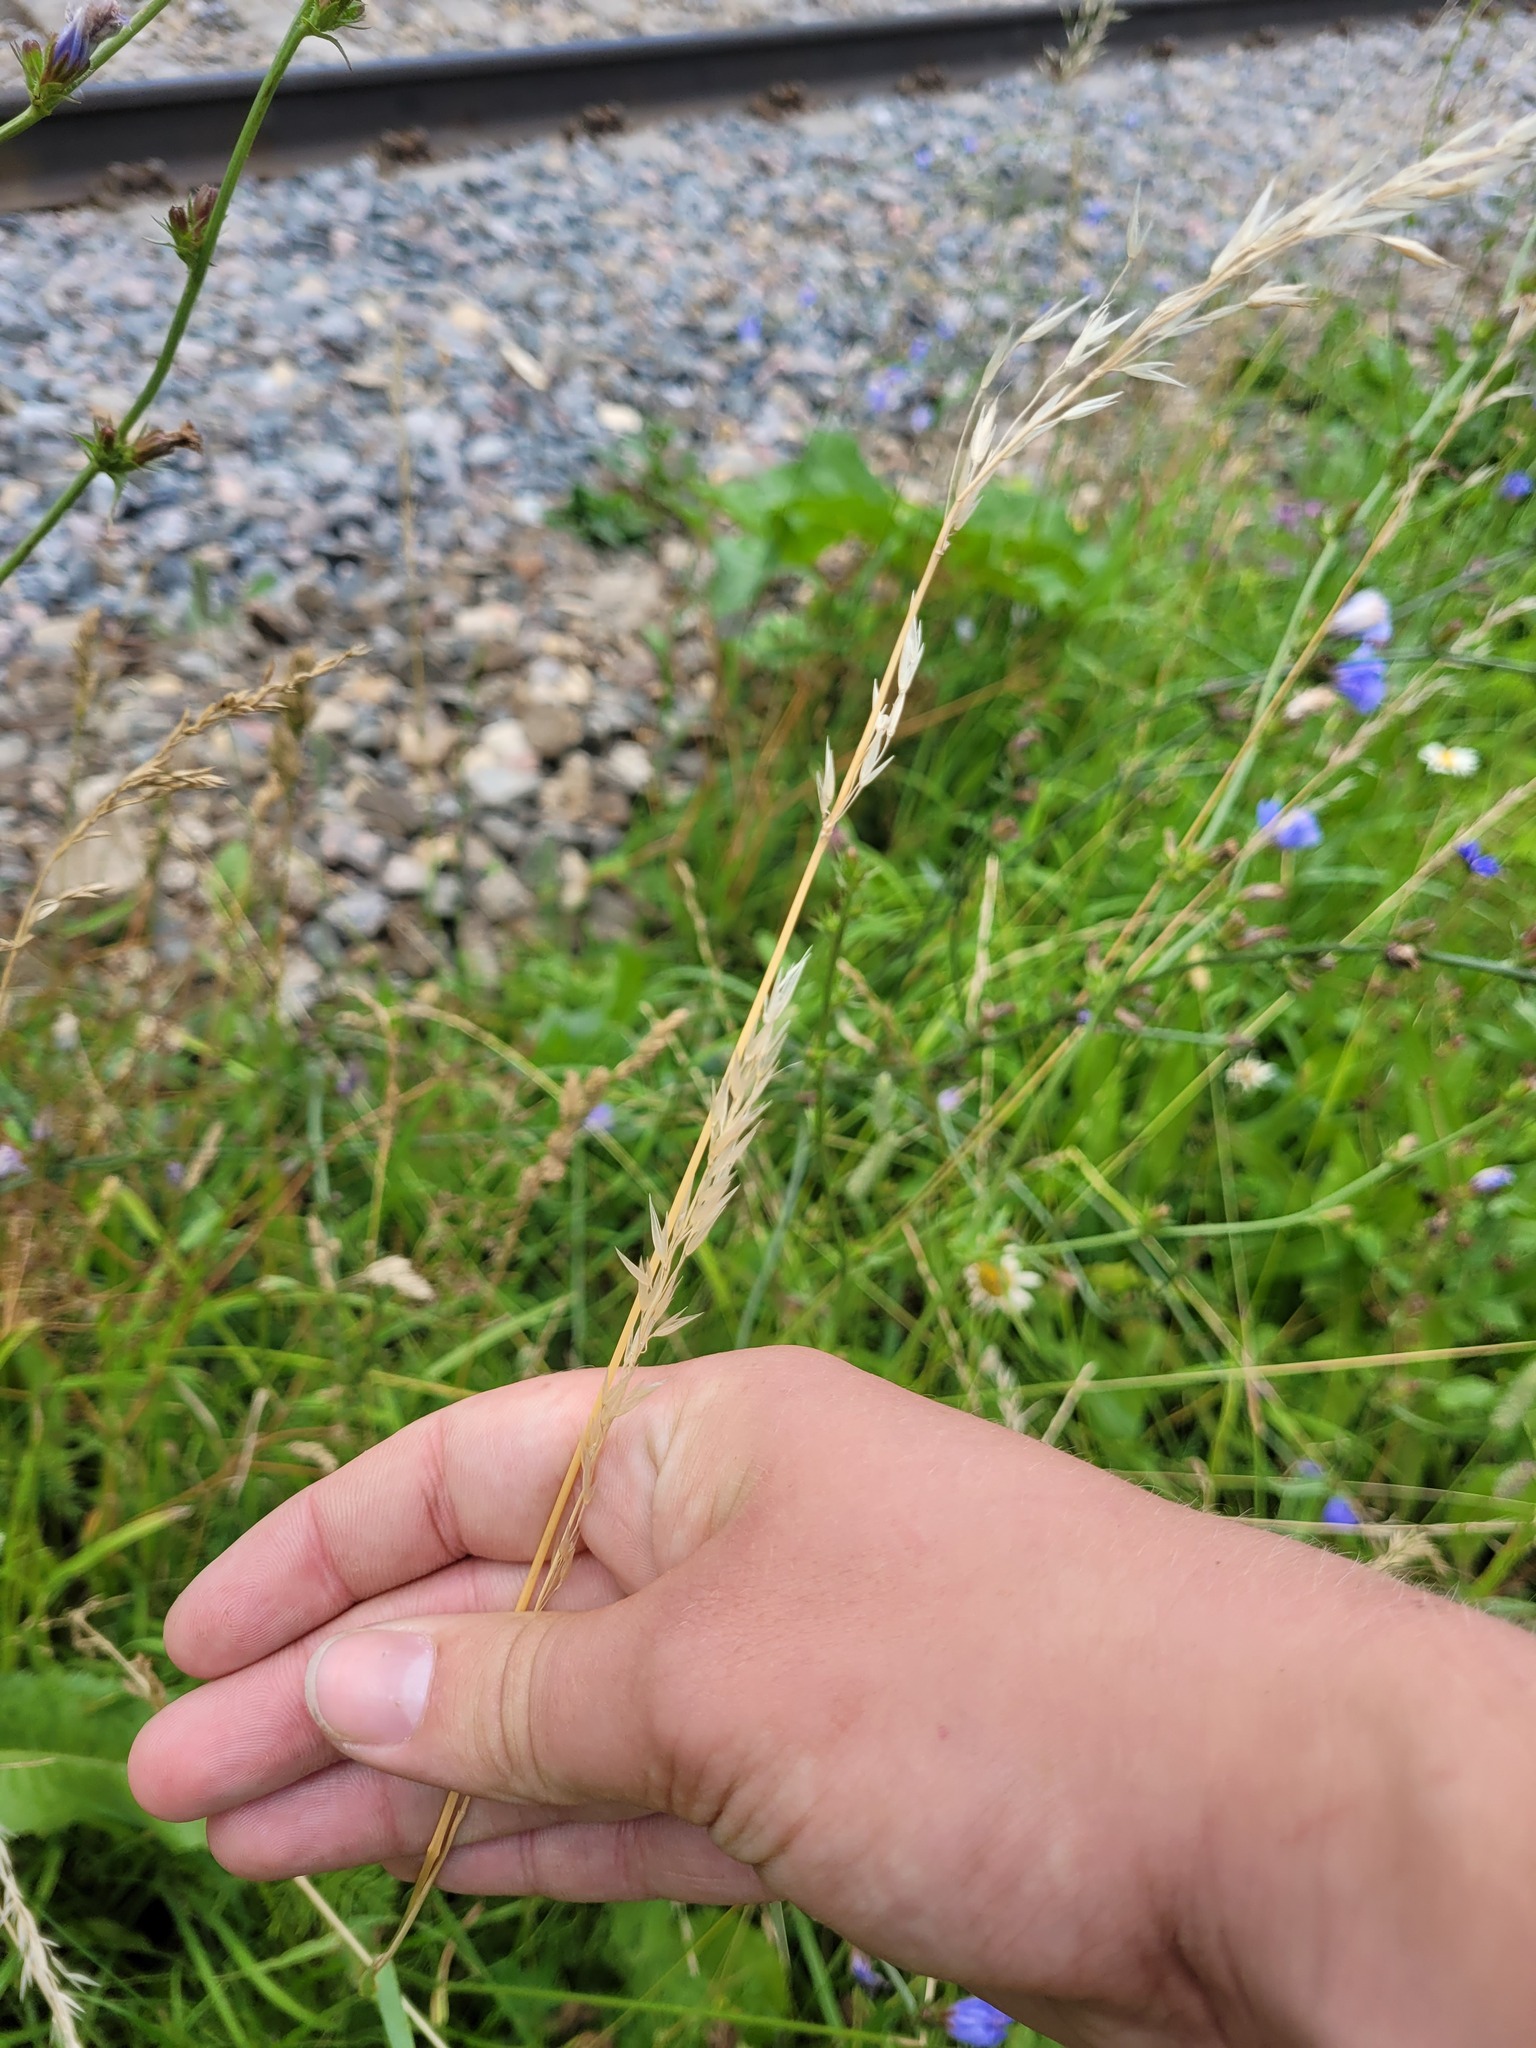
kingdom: Plantae
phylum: Tracheophyta
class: Liliopsida
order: Poales
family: Poaceae
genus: Arrhenatherum
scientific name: Arrhenatherum elatius
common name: Tall oatgrass
